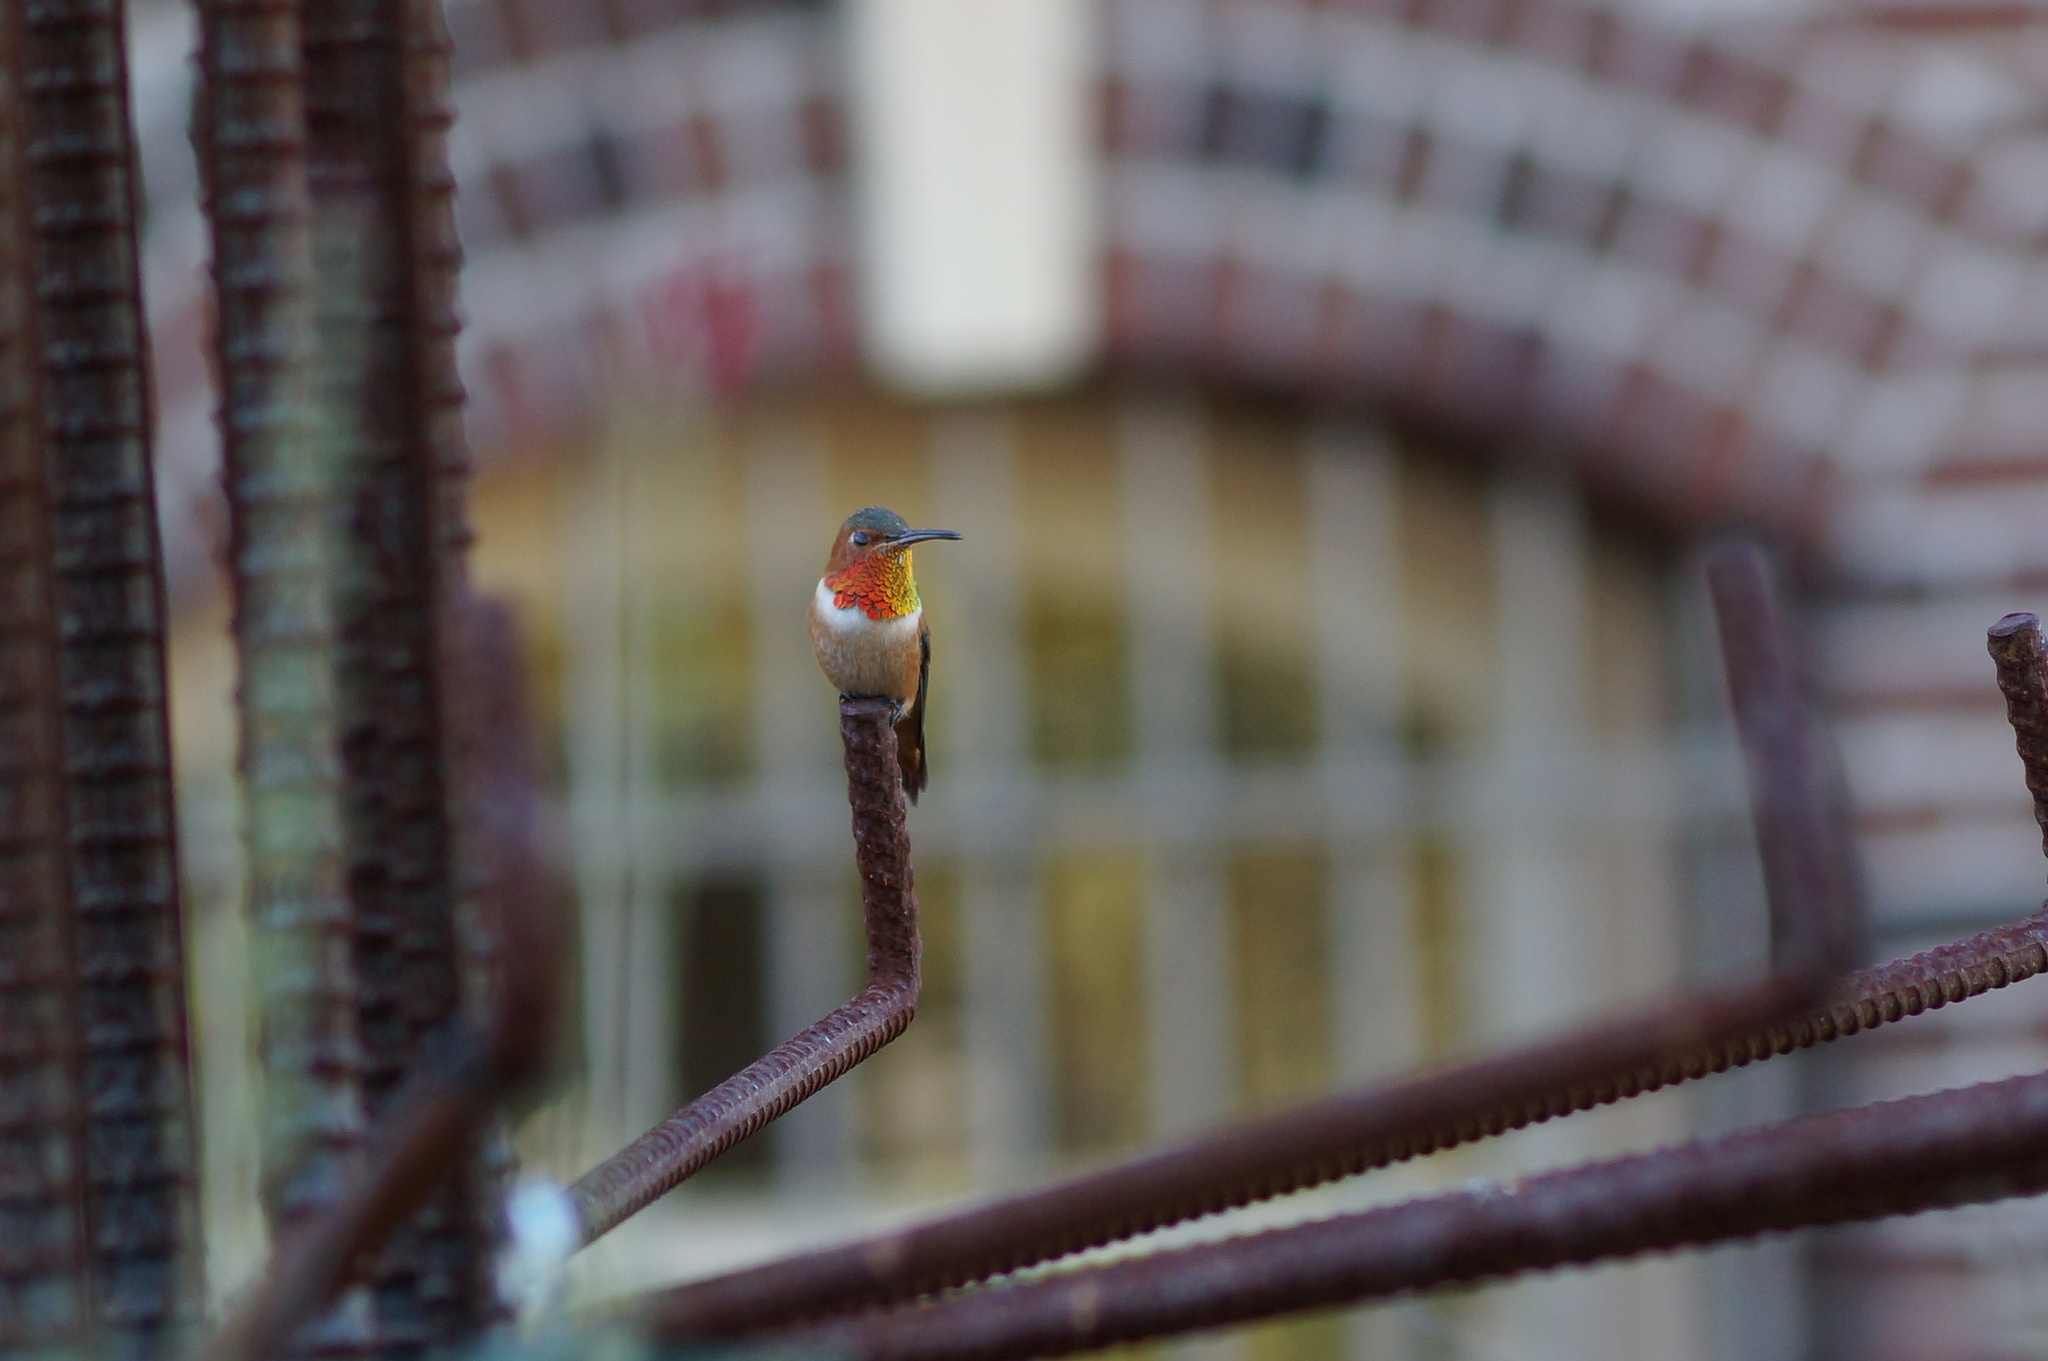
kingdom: Animalia
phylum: Chordata
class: Aves
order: Apodiformes
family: Trochilidae
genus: Selasphorus
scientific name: Selasphorus sasin
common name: Allen's hummingbird
